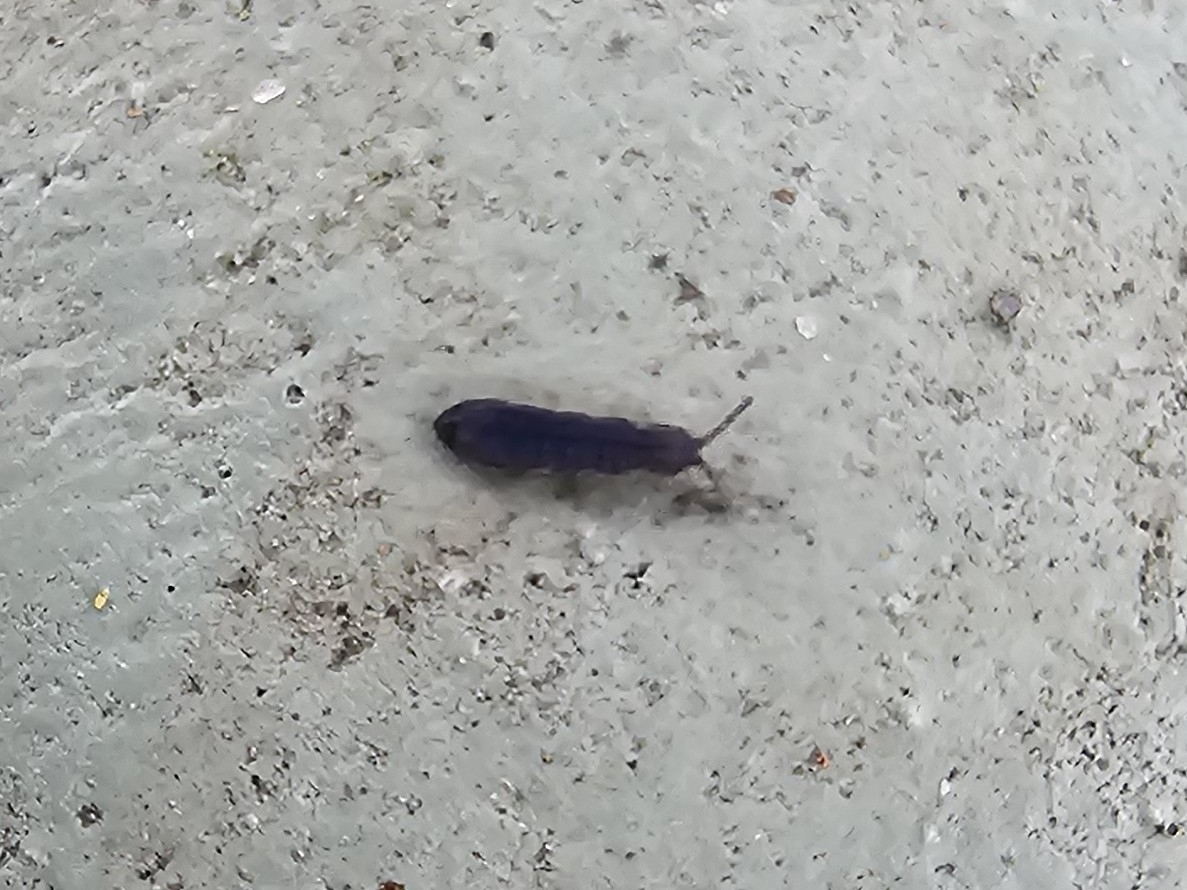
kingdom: Animalia
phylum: Arthropoda
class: Collembola
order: Entomobryomorpha
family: Isotomidae
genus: Vertagopus
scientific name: Vertagopus asiaticus
